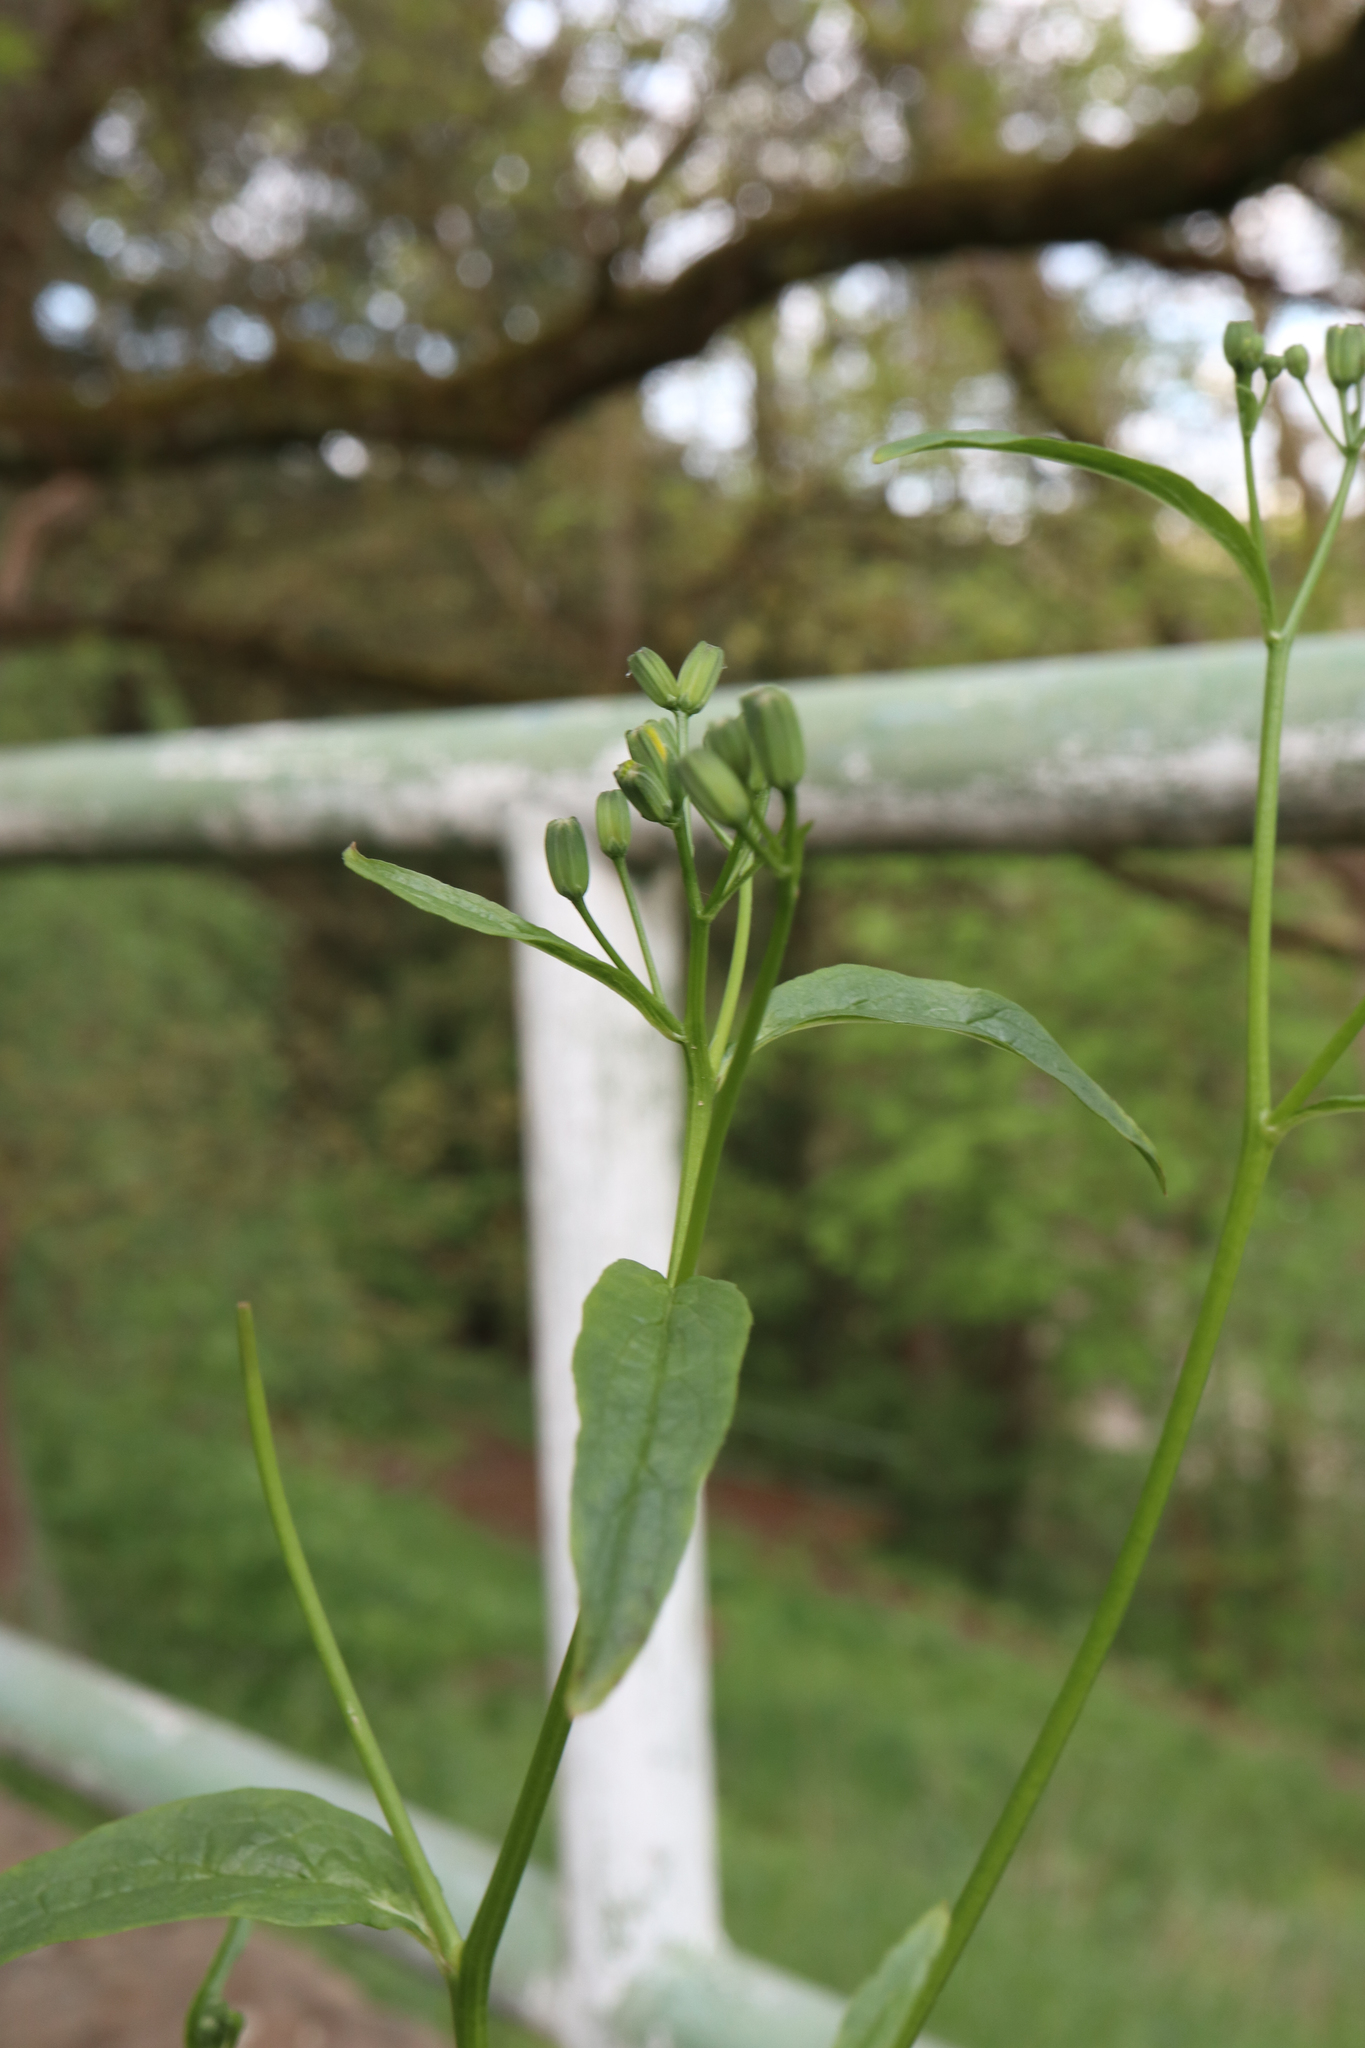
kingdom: Plantae
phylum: Tracheophyta
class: Magnoliopsida
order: Asterales
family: Asteraceae
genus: Lapsana
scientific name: Lapsana communis
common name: Nipplewort
